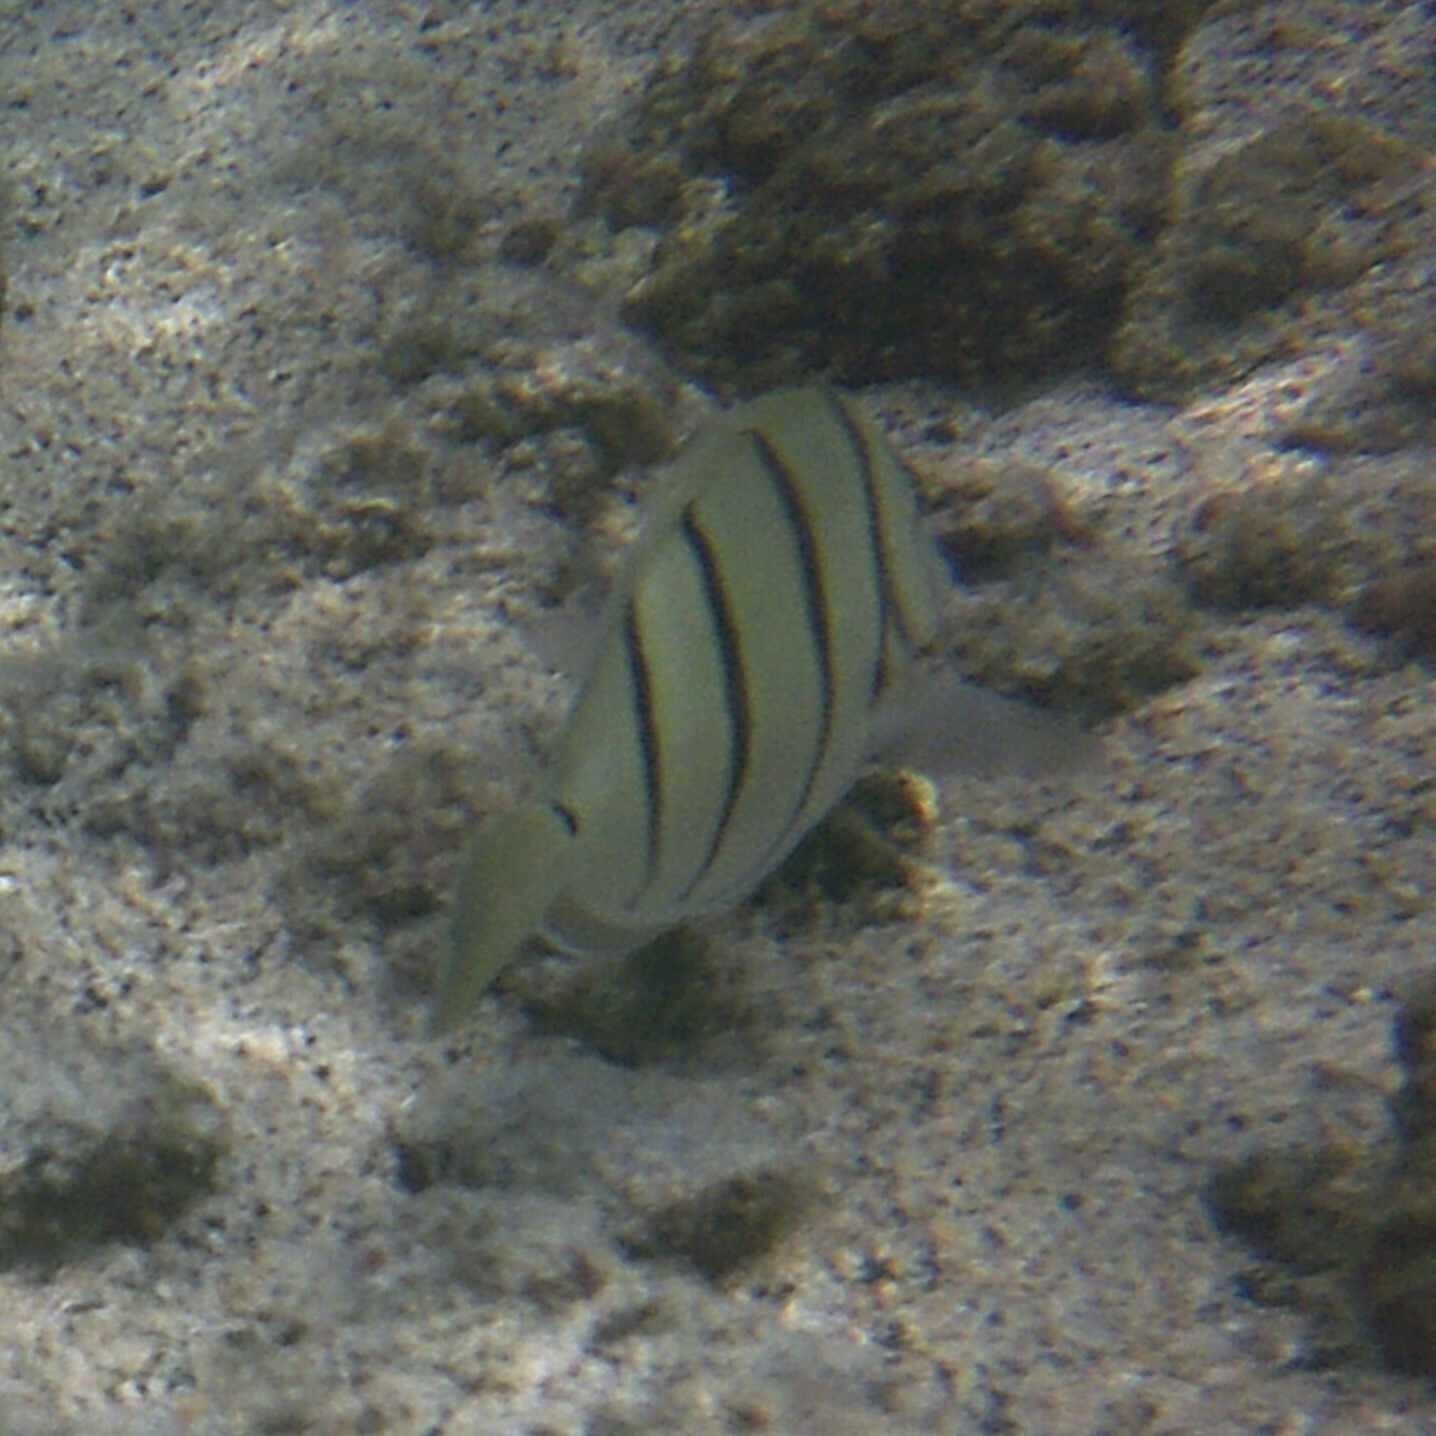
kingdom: Animalia
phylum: Chordata
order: Perciformes
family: Acanthuridae
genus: Acanthurus
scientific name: Acanthurus triostegus
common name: Convict surgeonfish
